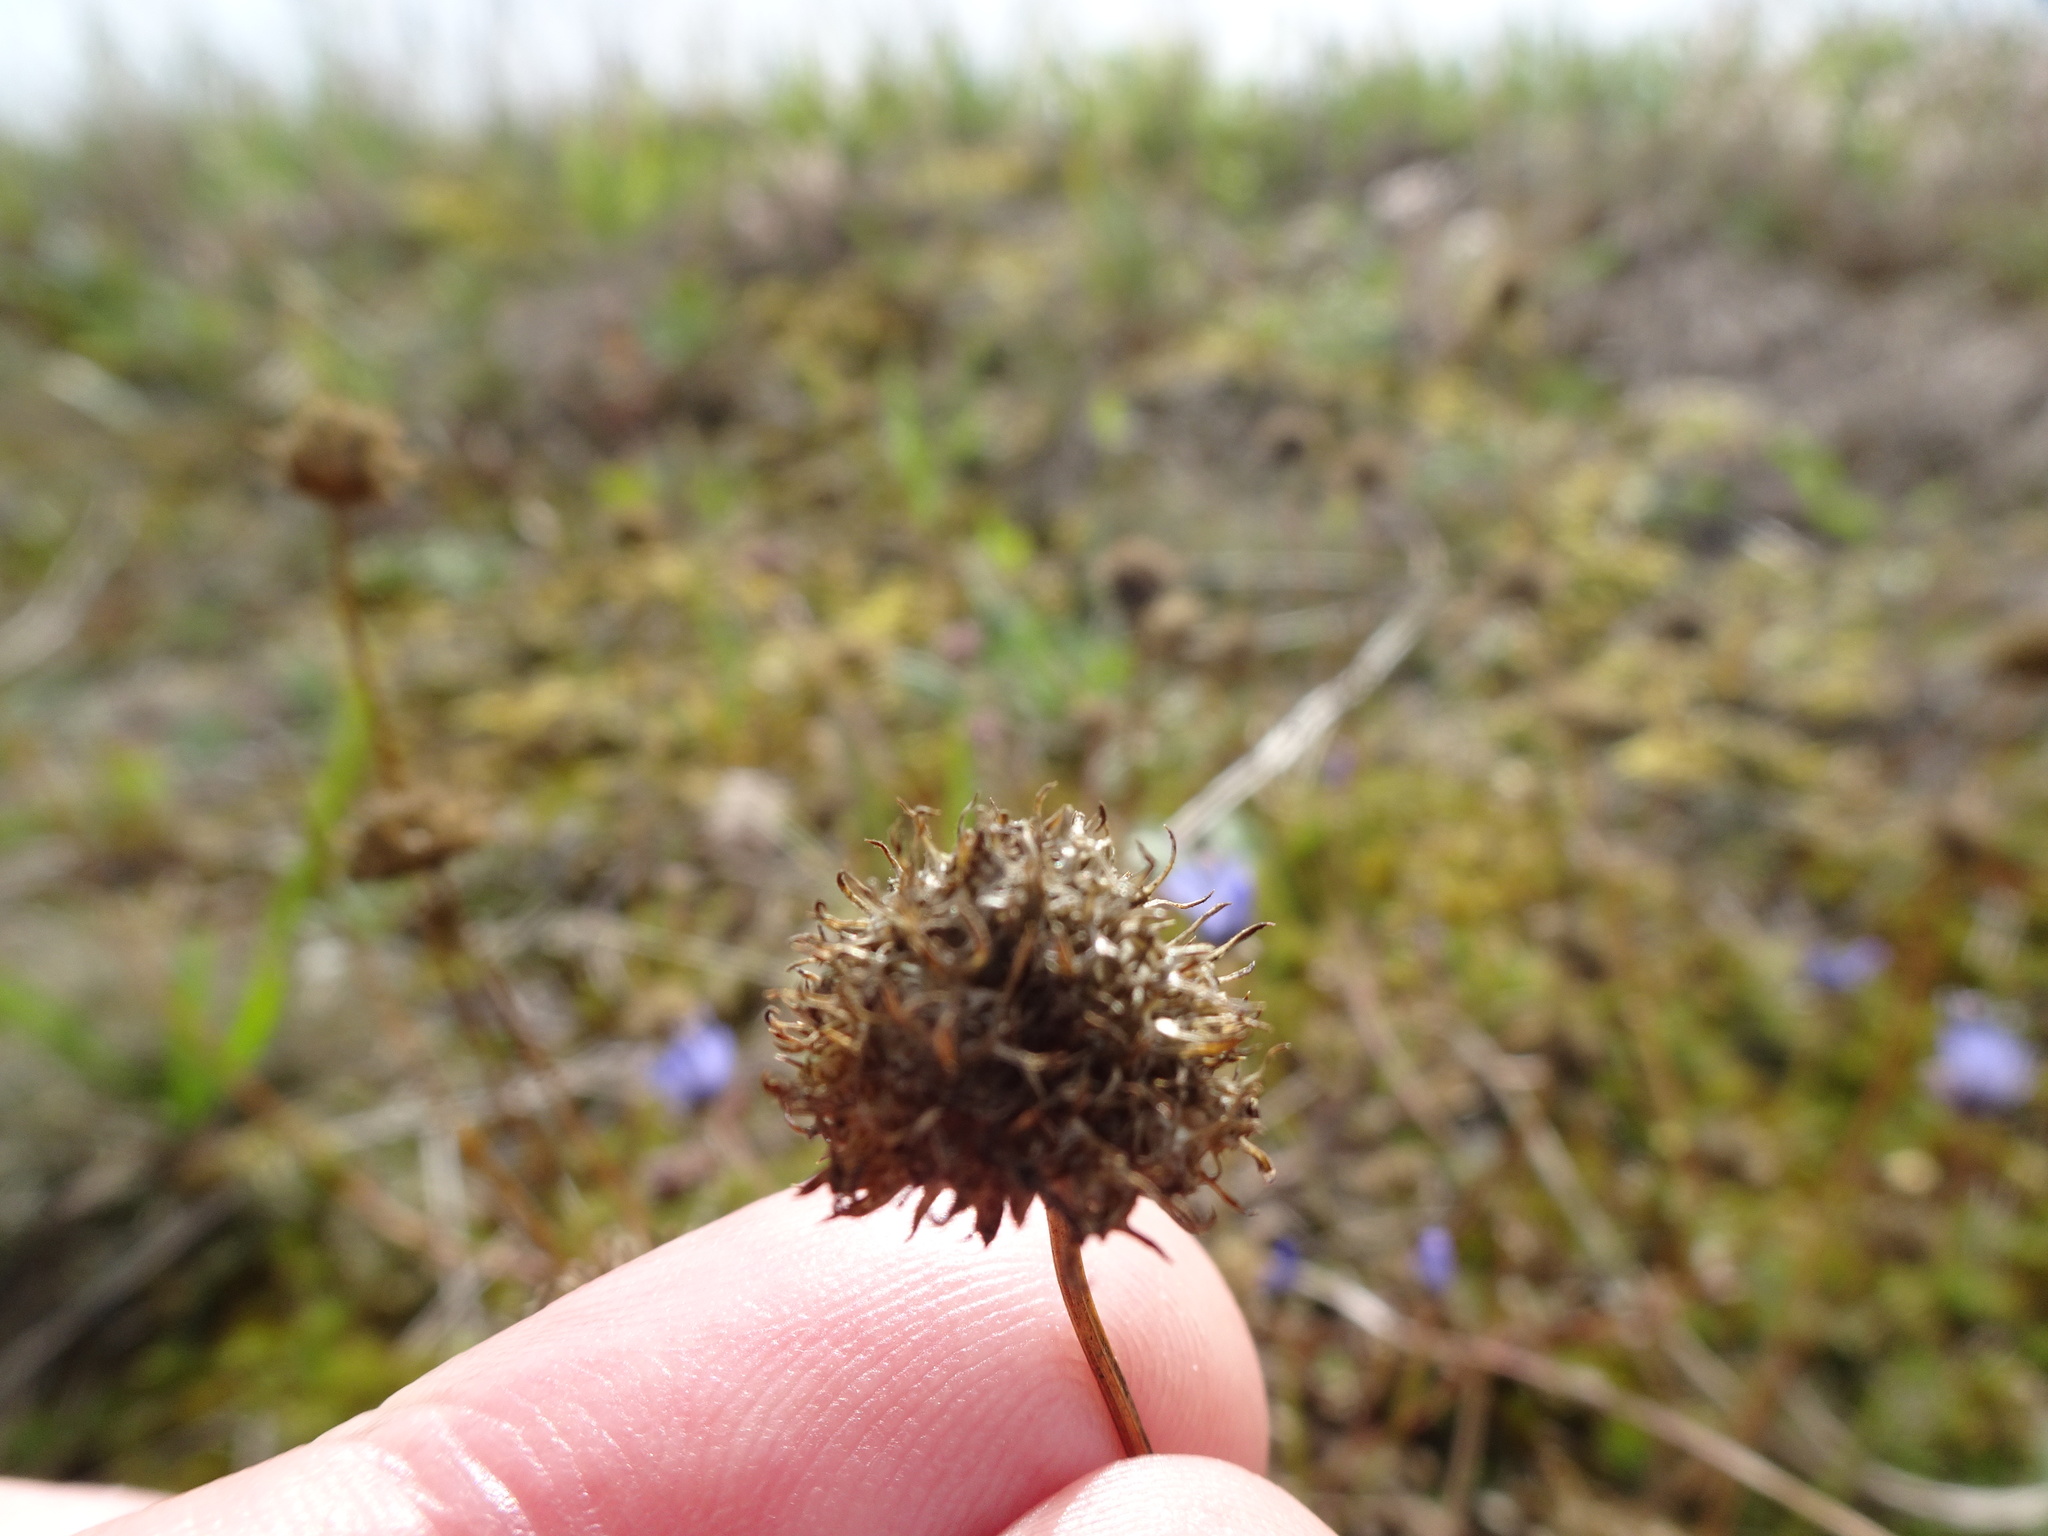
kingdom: Plantae
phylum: Tracheophyta
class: Magnoliopsida
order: Asterales
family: Campanulaceae
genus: Jasione
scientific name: Jasione montana
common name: Sheep's-bit
